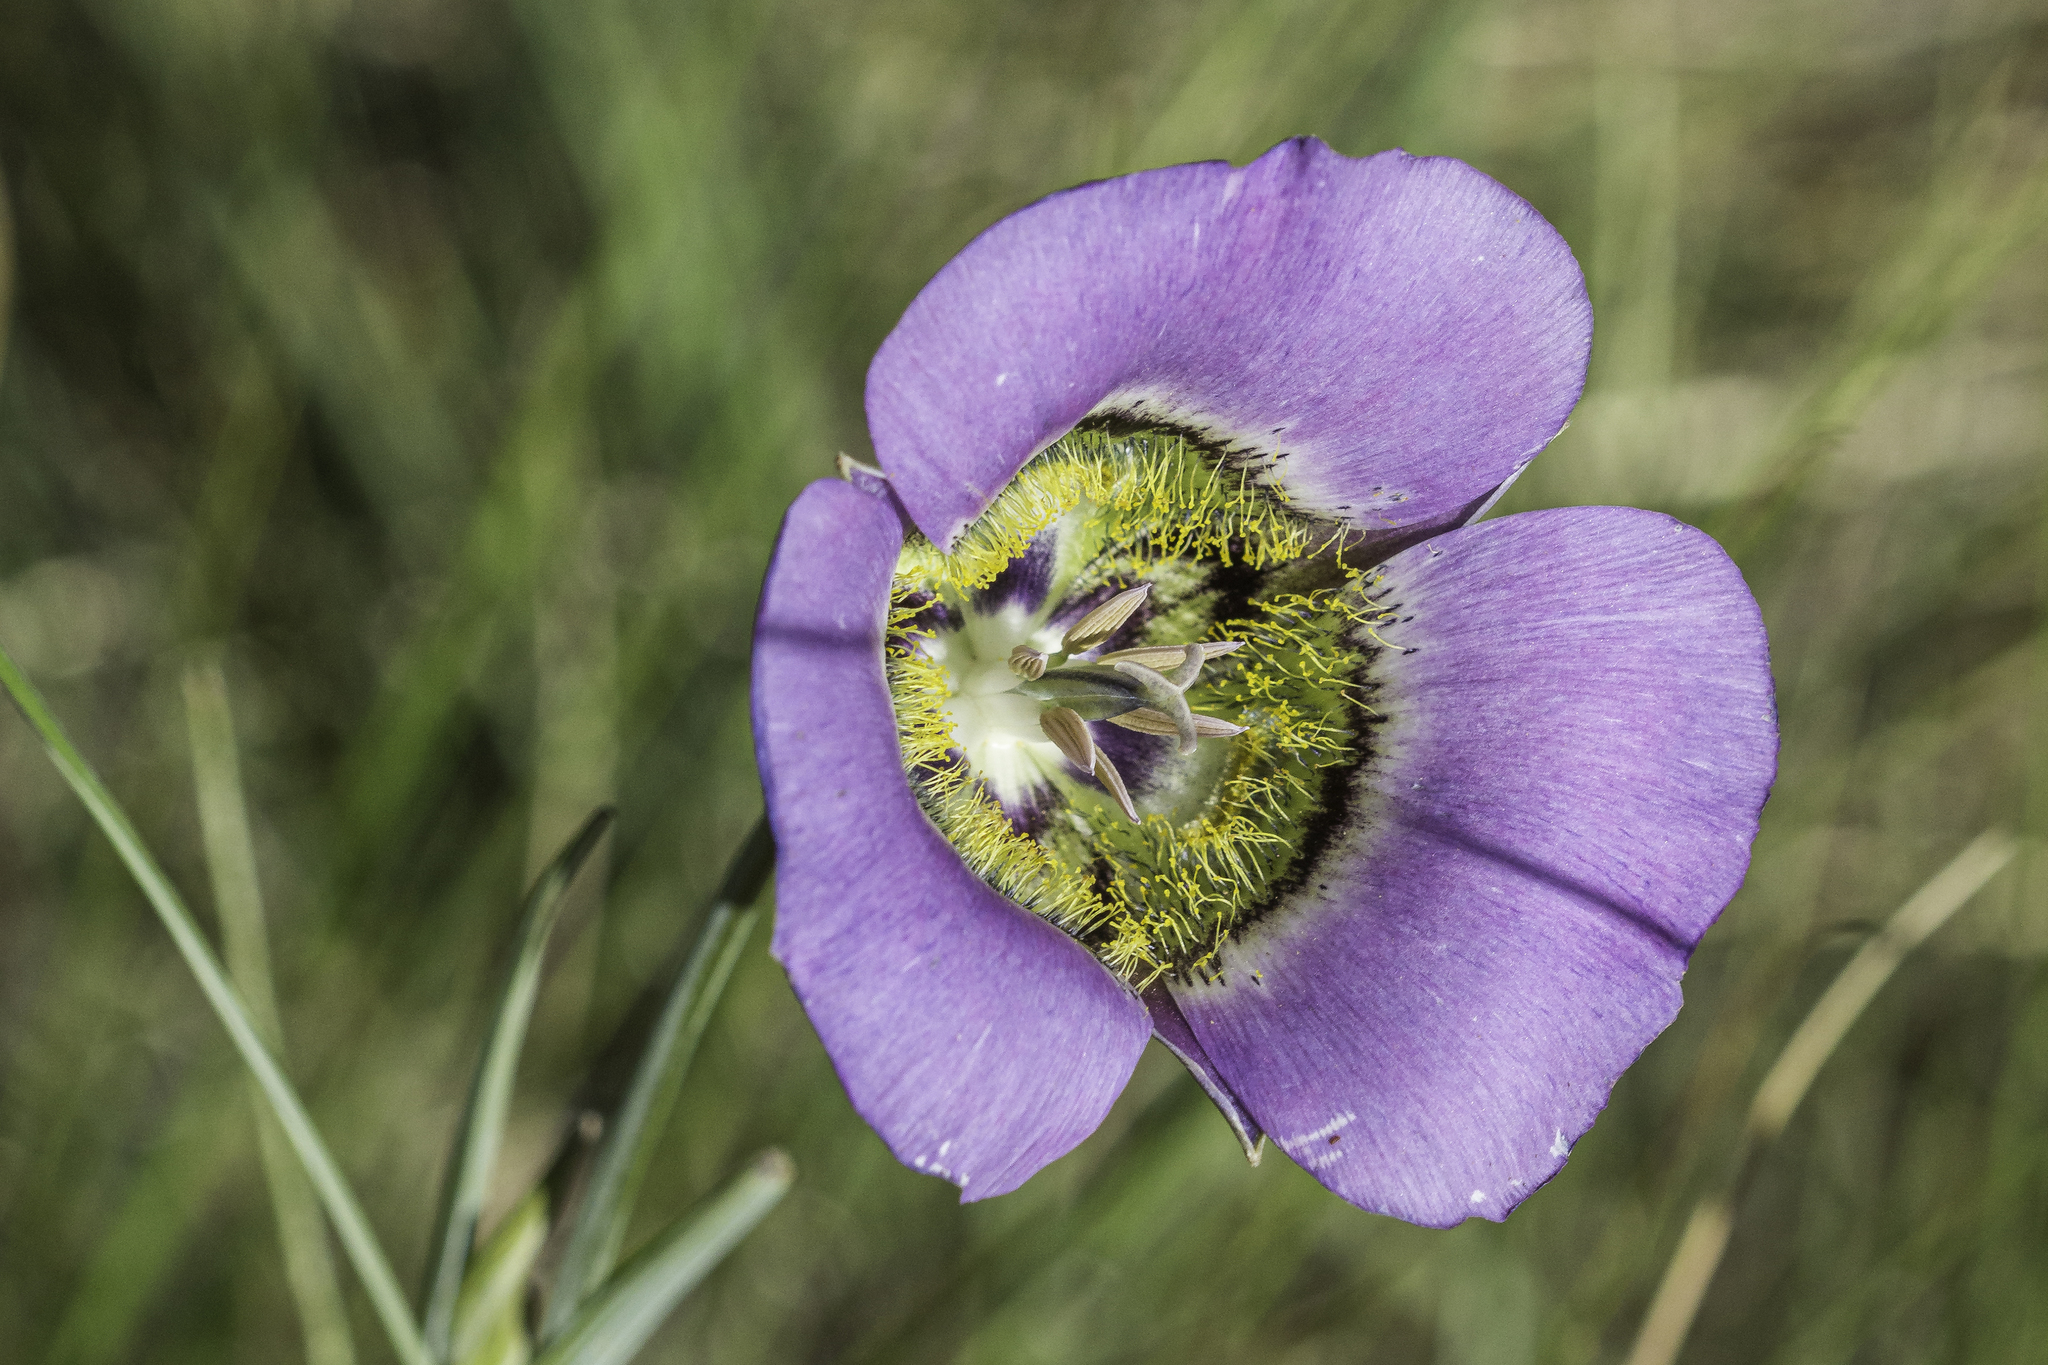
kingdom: Plantae
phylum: Tracheophyta
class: Liliopsida
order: Liliales
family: Liliaceae
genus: Calochortus
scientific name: Calochortus gunnisonii
